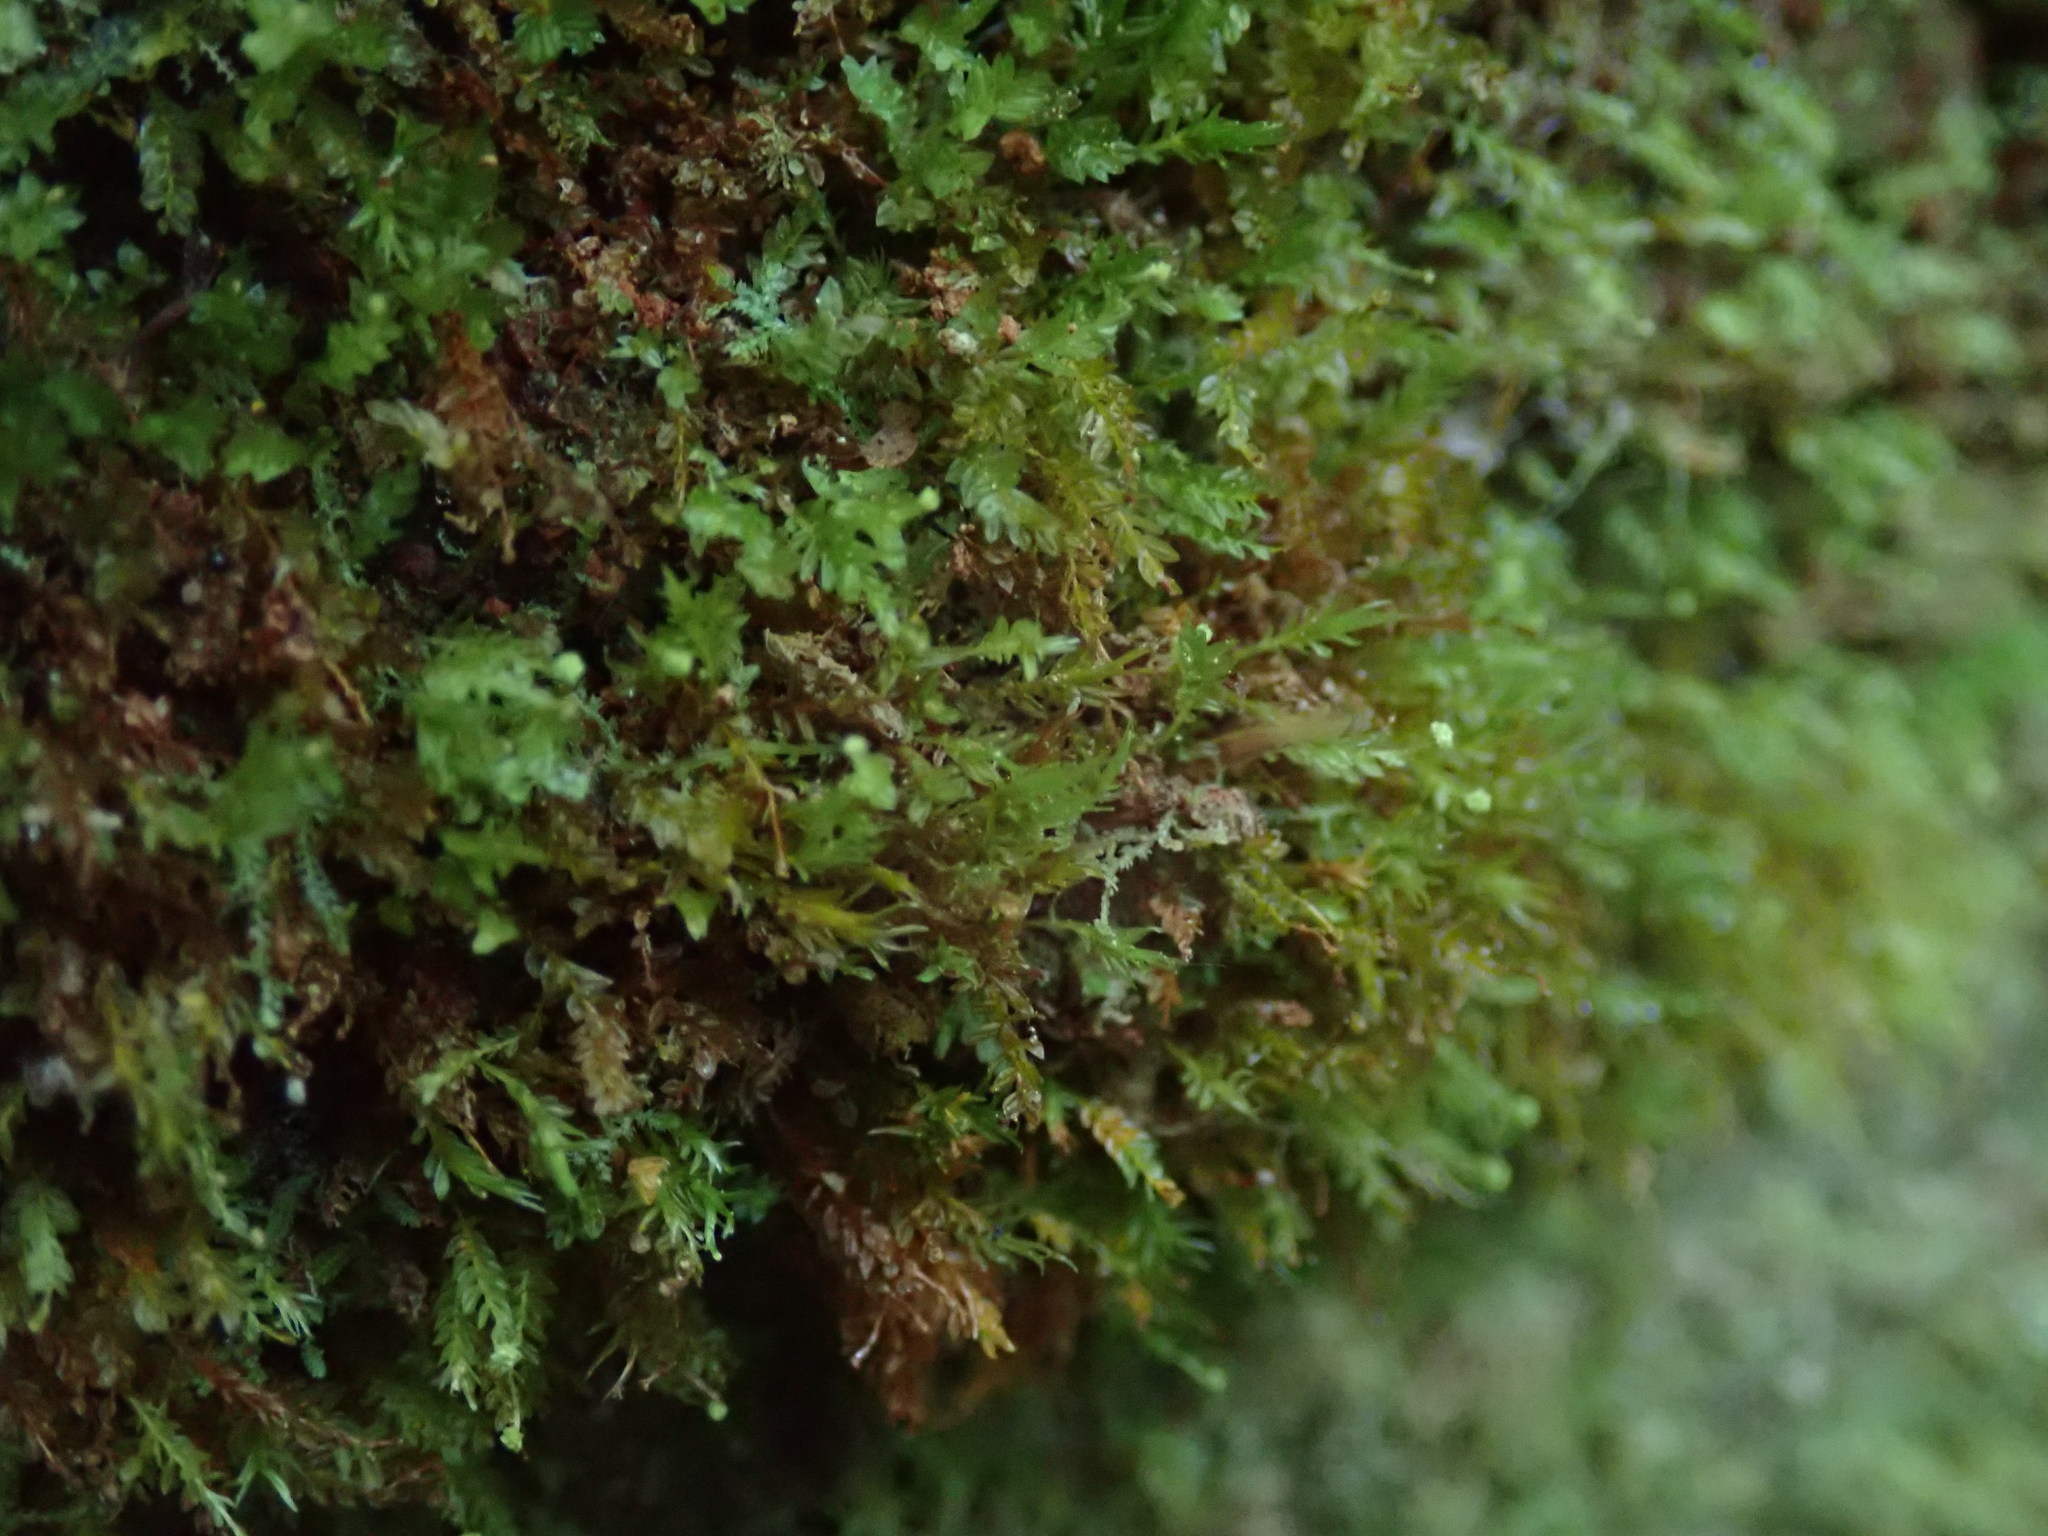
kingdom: Plantae
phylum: Bryophyta
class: Polytrichopsida
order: Tetraphidales
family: Tetraphidaceae
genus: Tetraphis
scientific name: Tetraphis pellucida
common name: Common four-toothed moss
